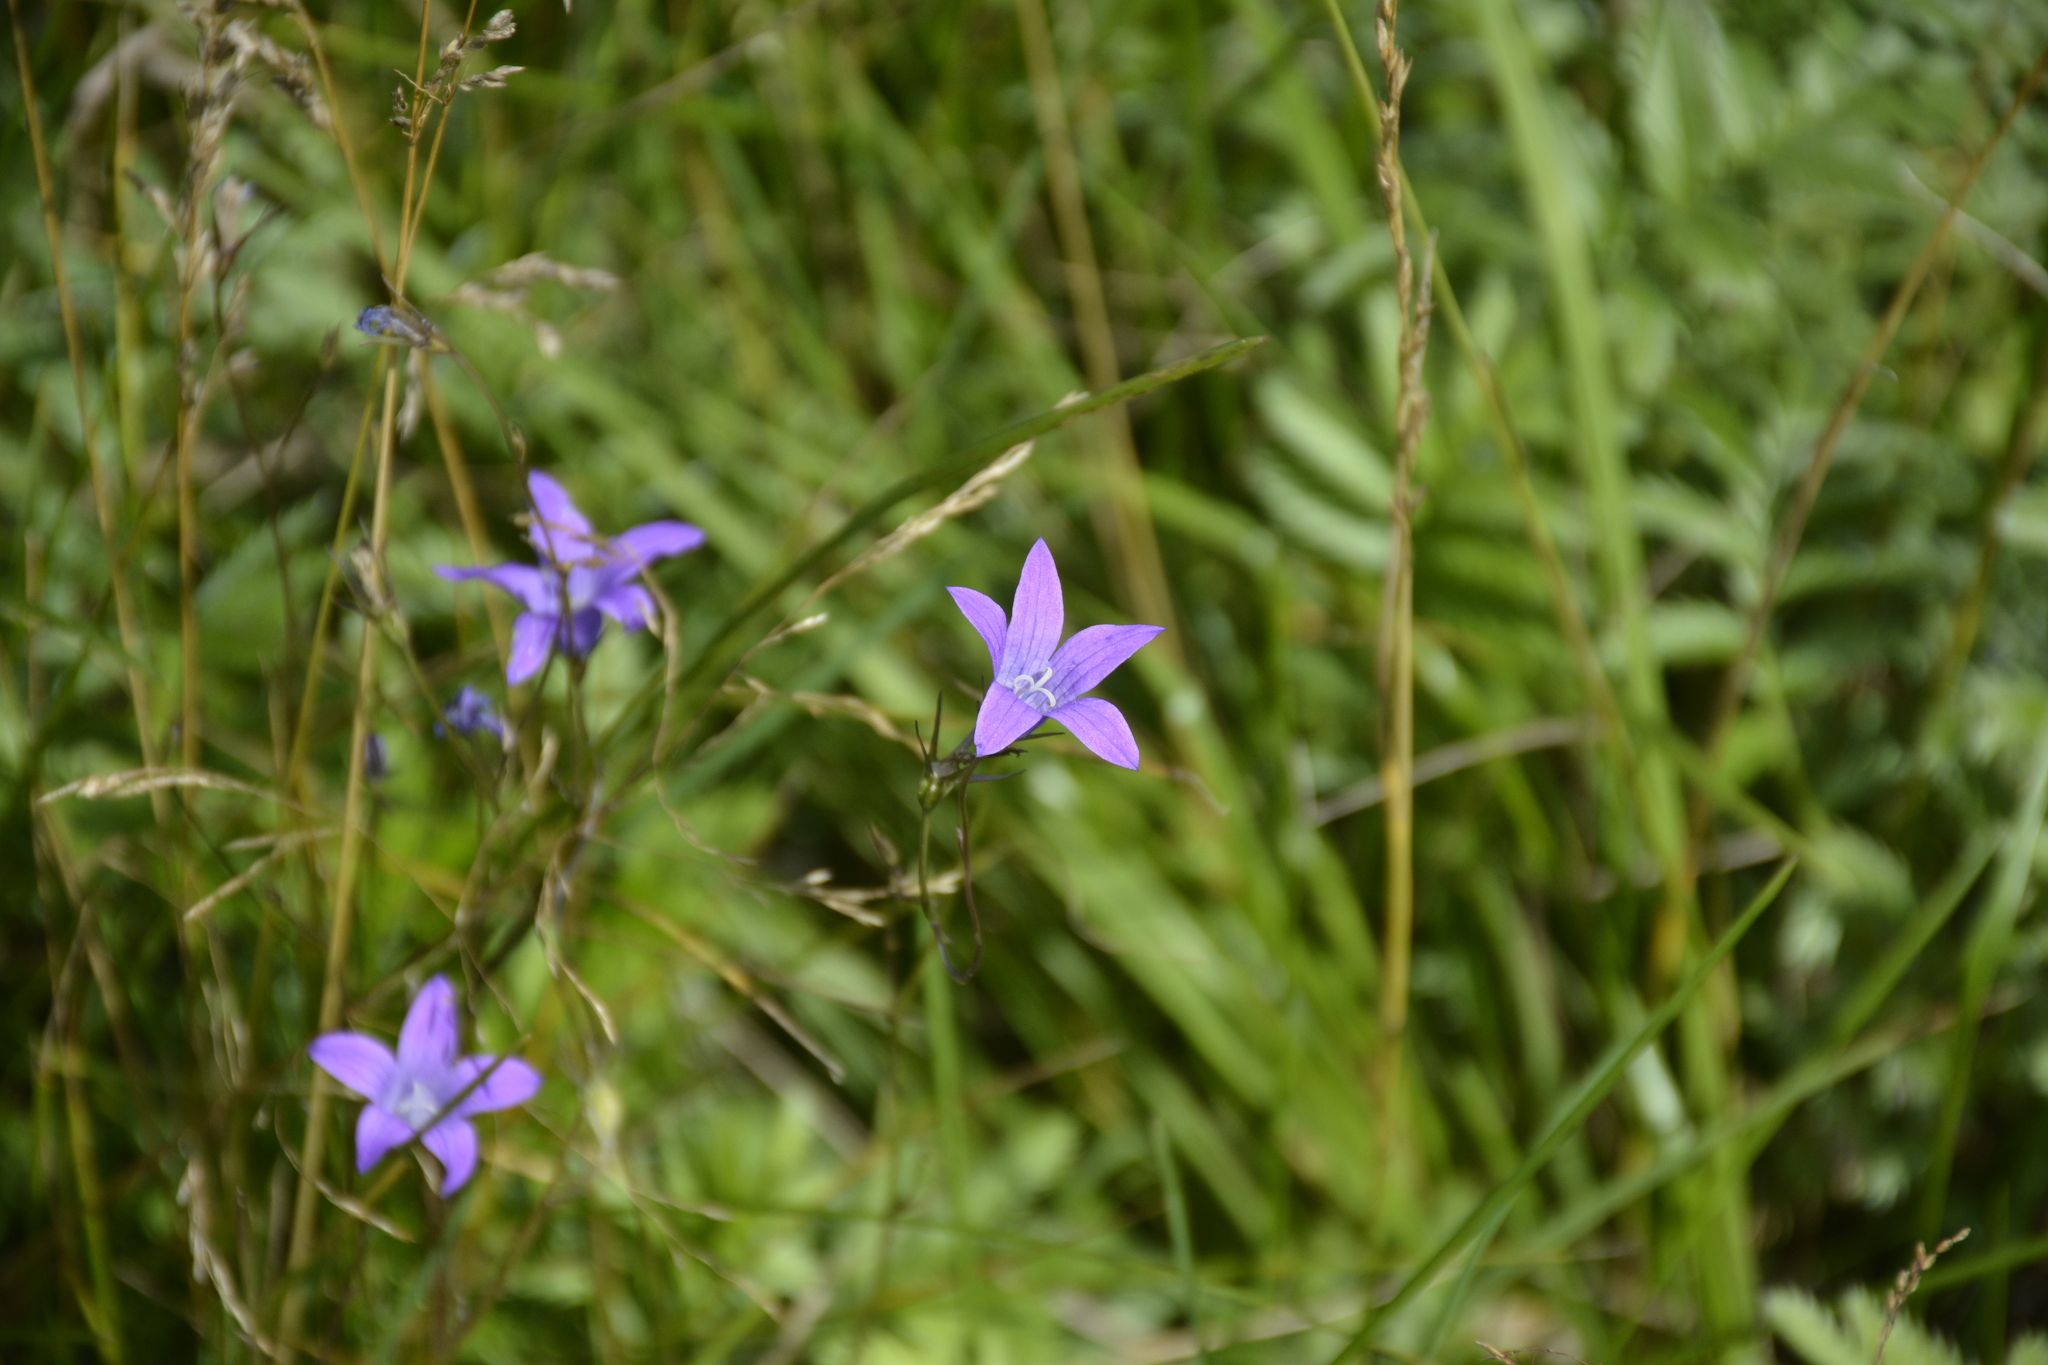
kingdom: Plantae
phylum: Tracheophyta
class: Magnoliopsida
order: Asterales
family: Campanulaceae
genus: Campanula
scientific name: Campanula patula
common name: Spreading bellflower
